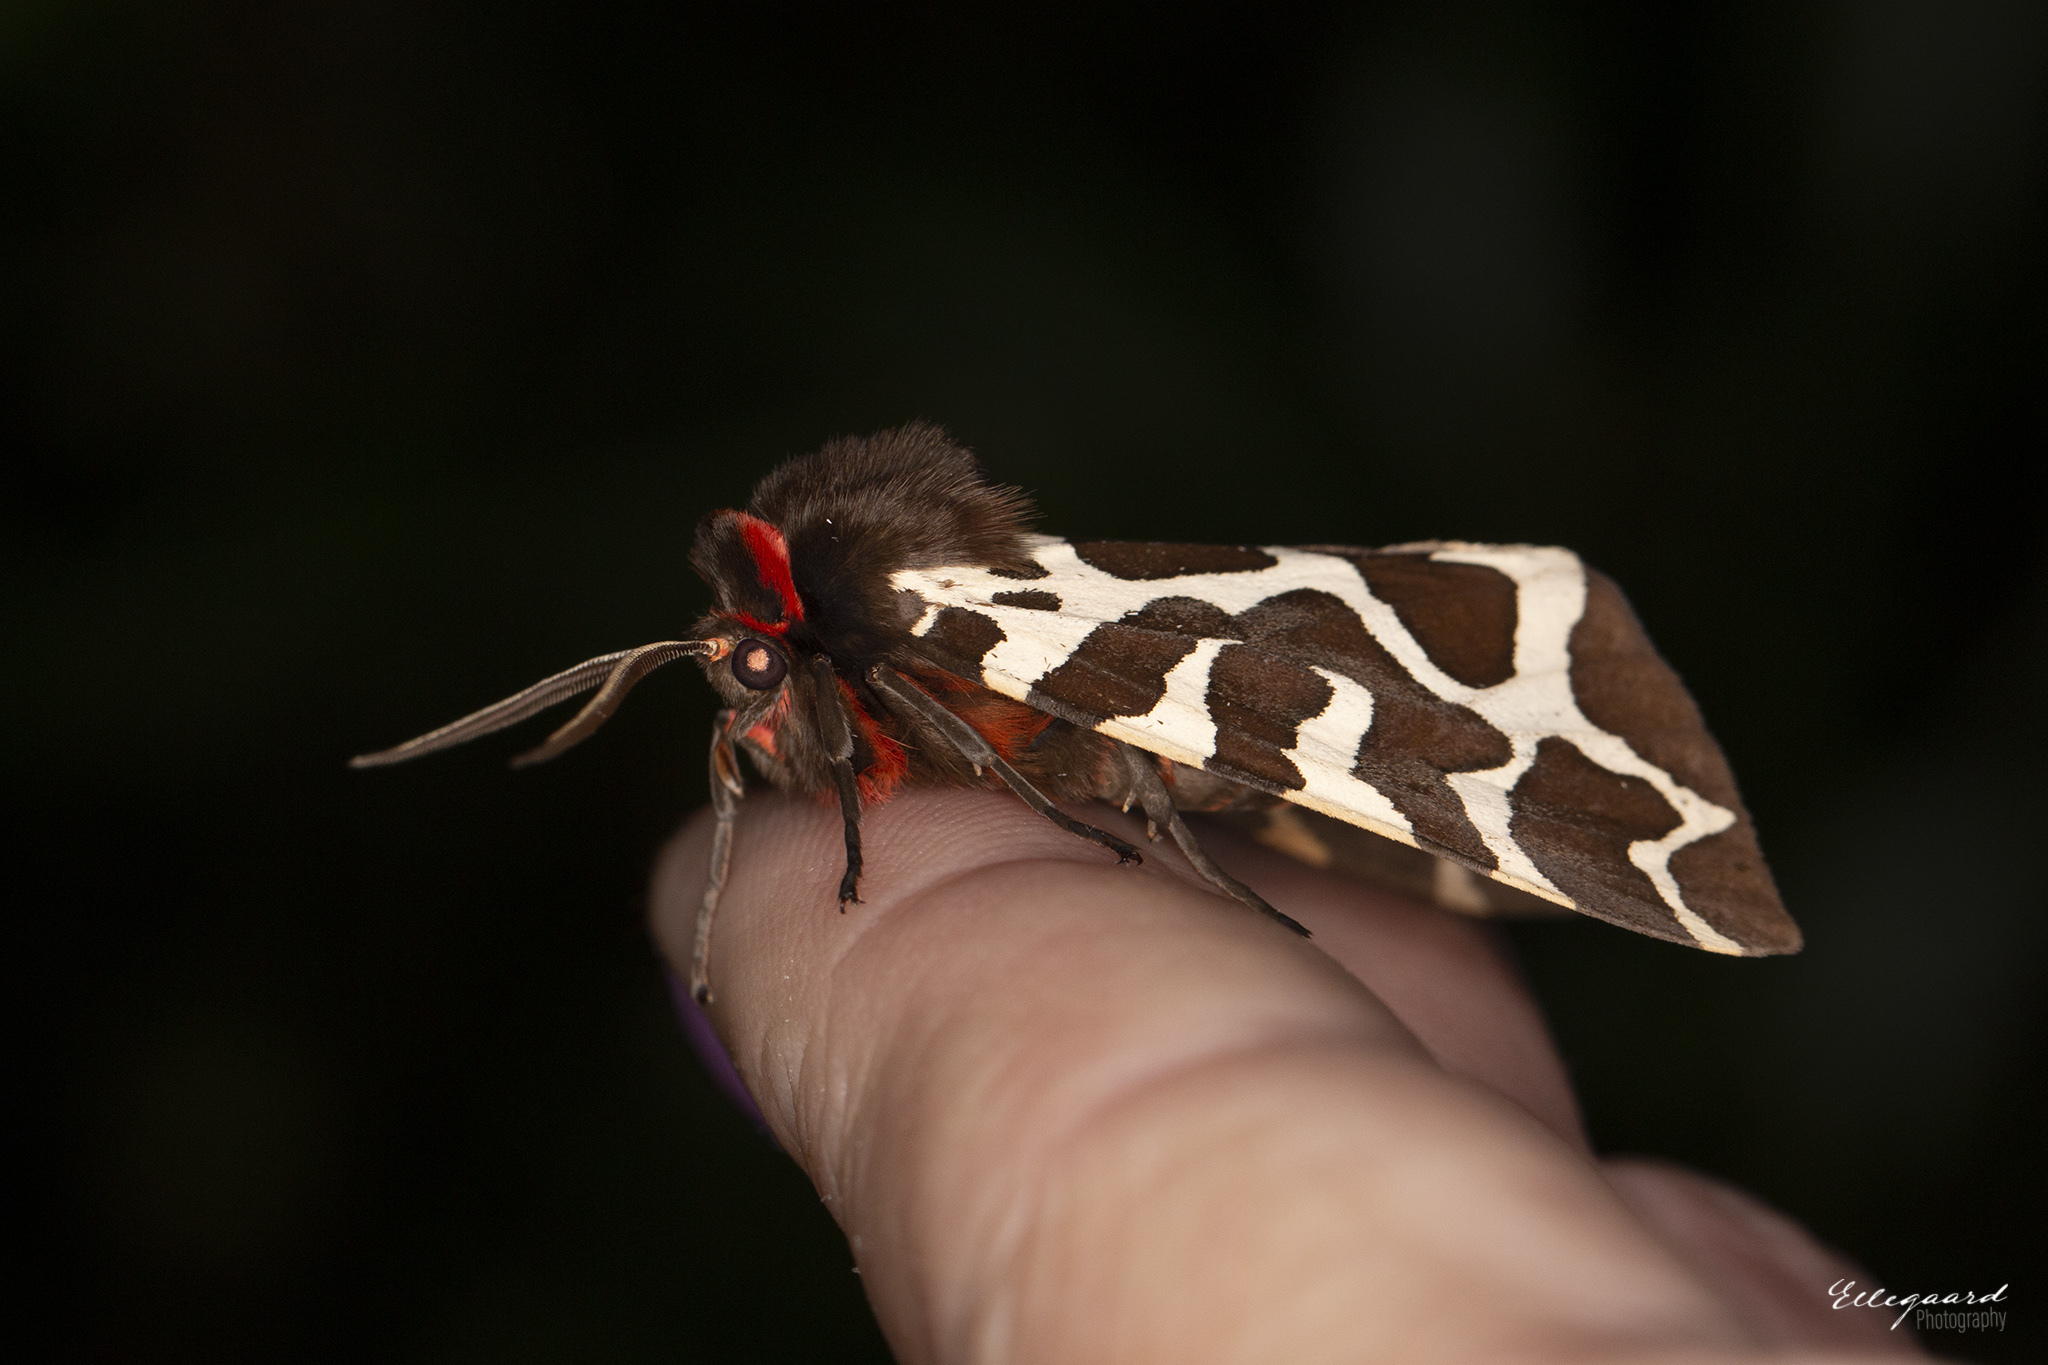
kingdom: Animalia
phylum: Arthropoda
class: Insecta
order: Lepidoptera
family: Erebidae
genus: Arctia
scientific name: Arctia caja
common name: Garden tiger
